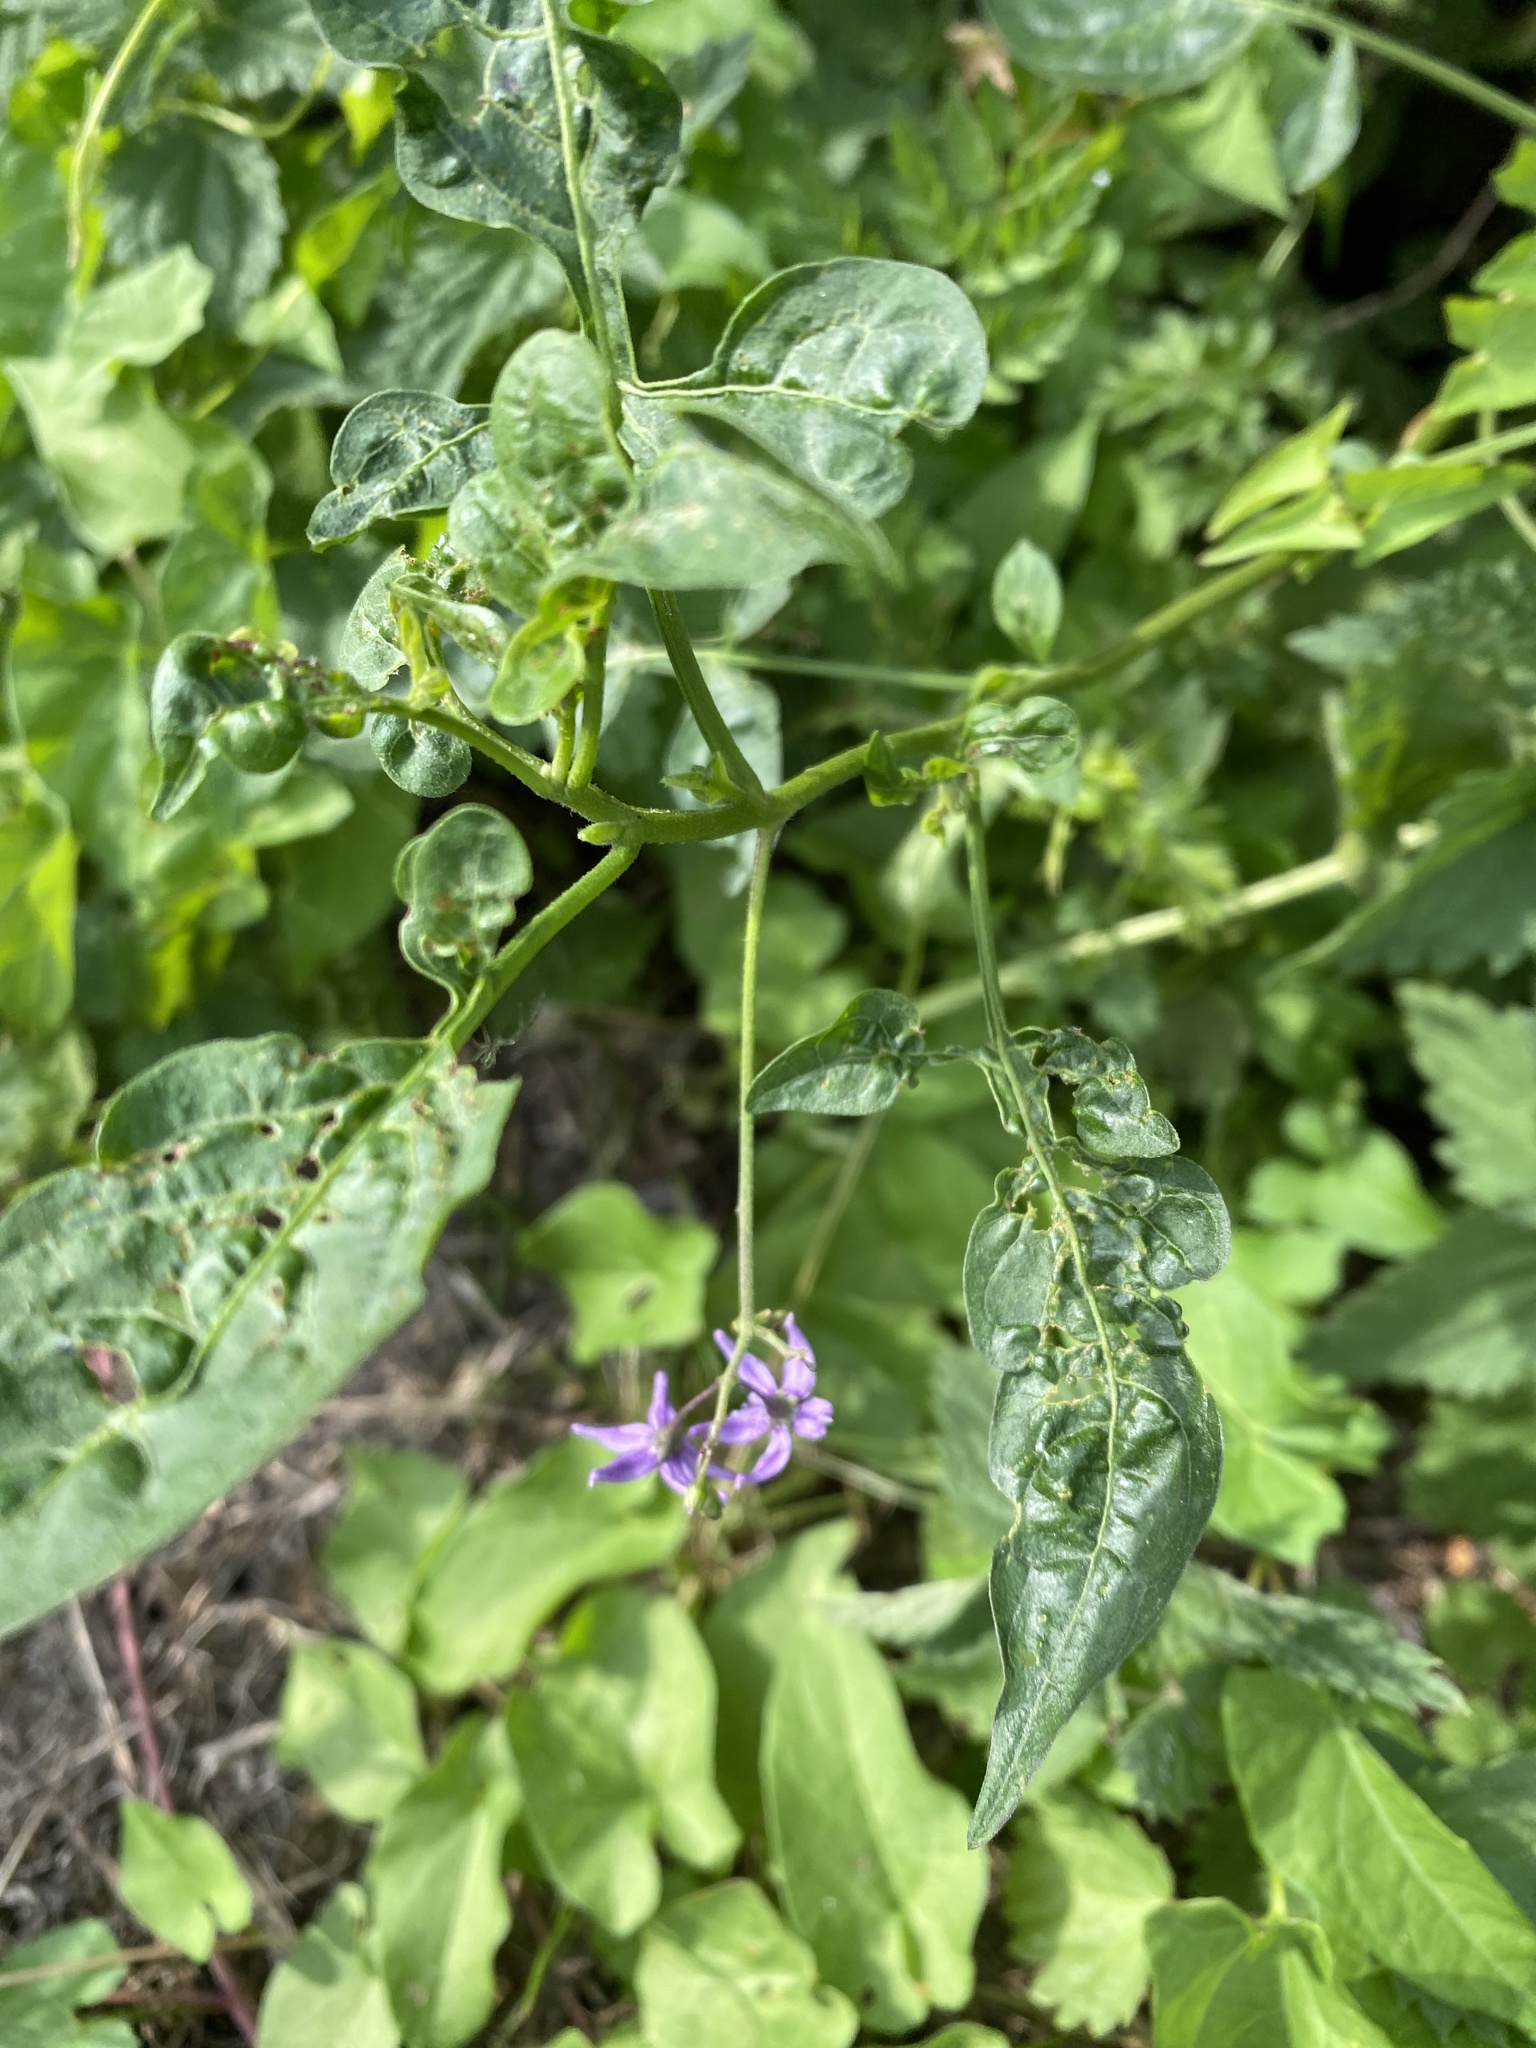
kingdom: Plantae
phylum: Tracheophyta
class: Magnoliopsida
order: Solanales
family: Solanaceae
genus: Solanum
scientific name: Solanum dulcamara
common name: Climbing nightshade
